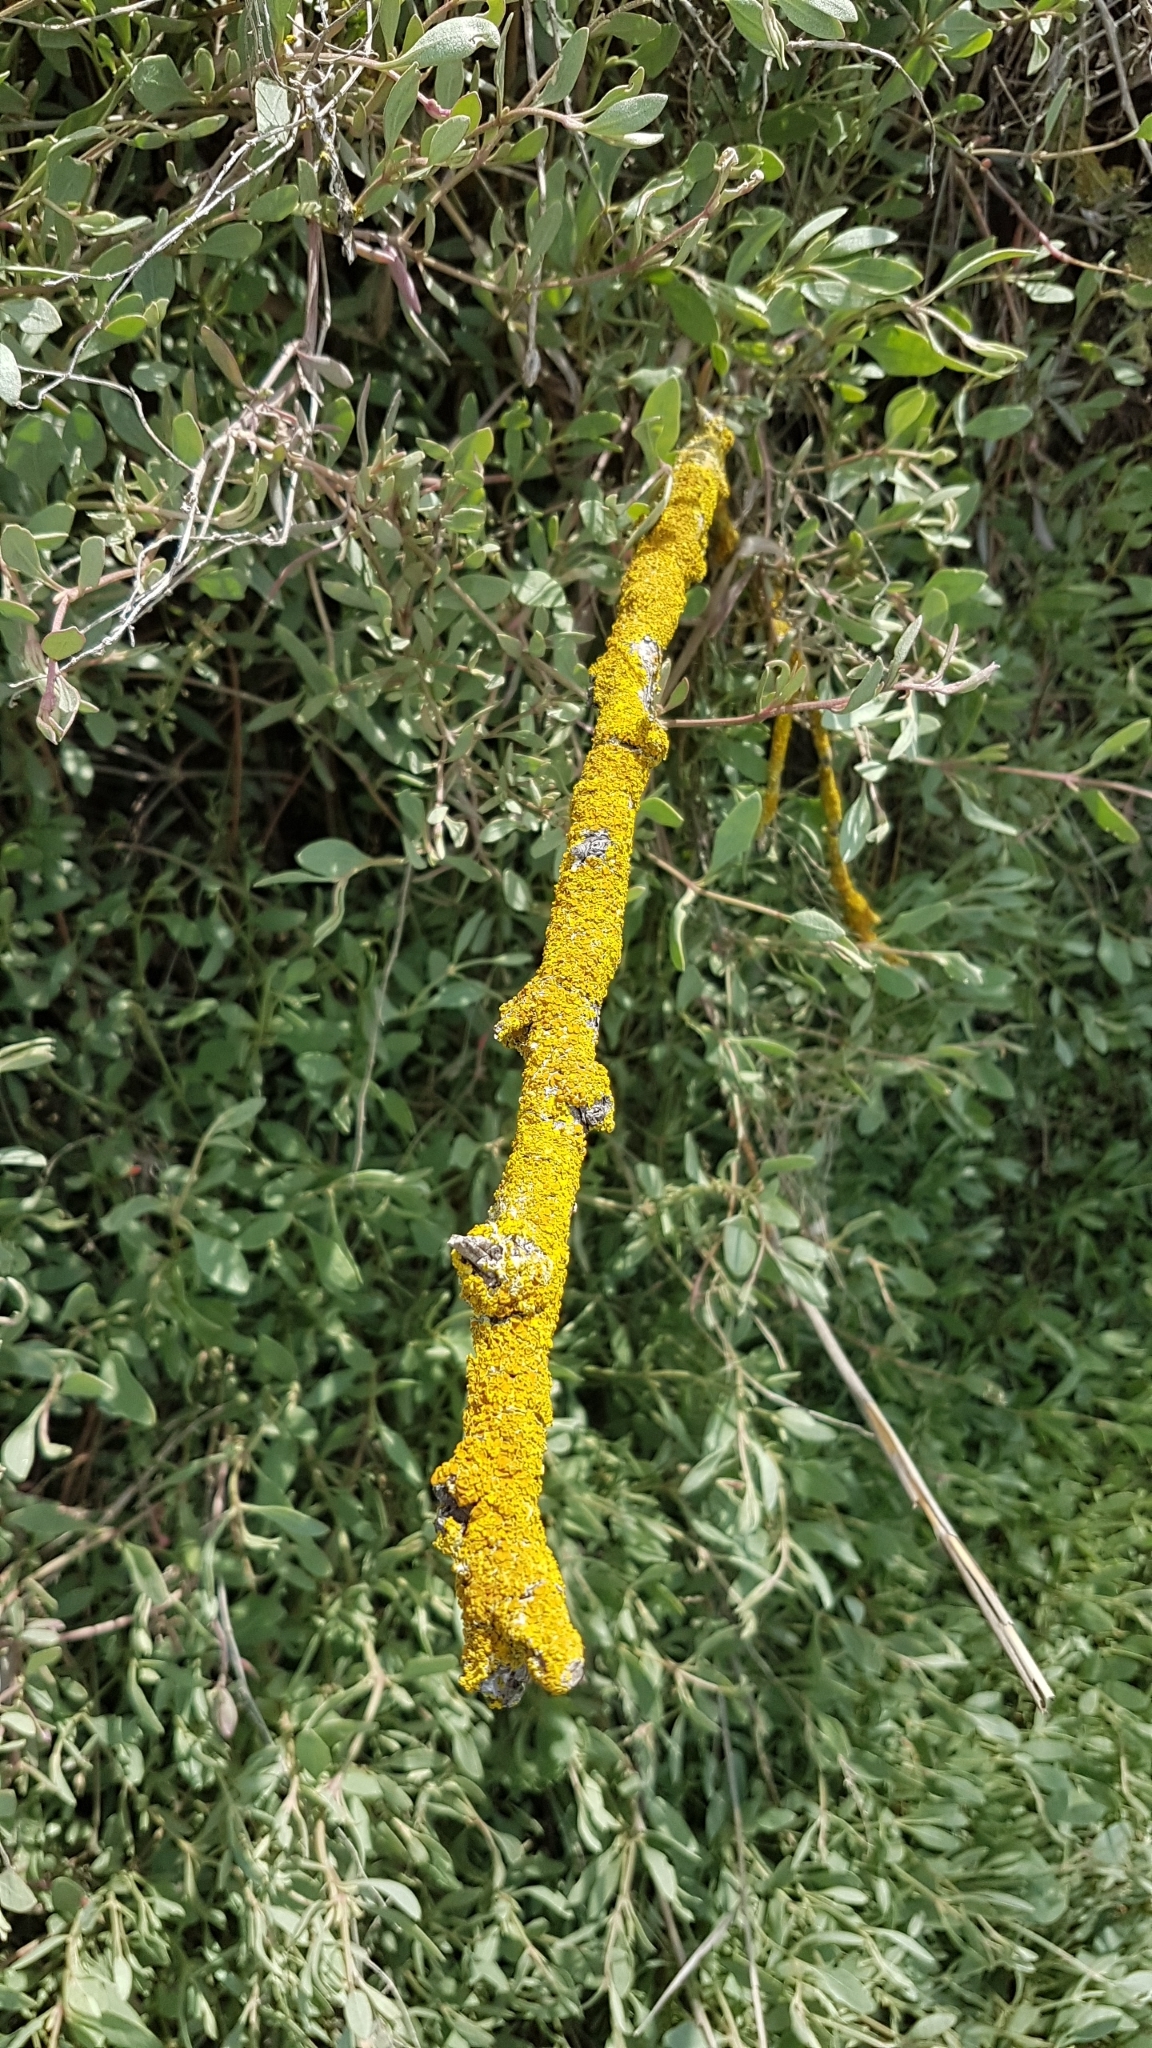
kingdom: Fungi
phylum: Ascomycota
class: Lecanoromycetes
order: Teloschistales
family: Teloschistaceae
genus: Xanthoria
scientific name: Xanthoria parietina
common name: Common orange lichen
